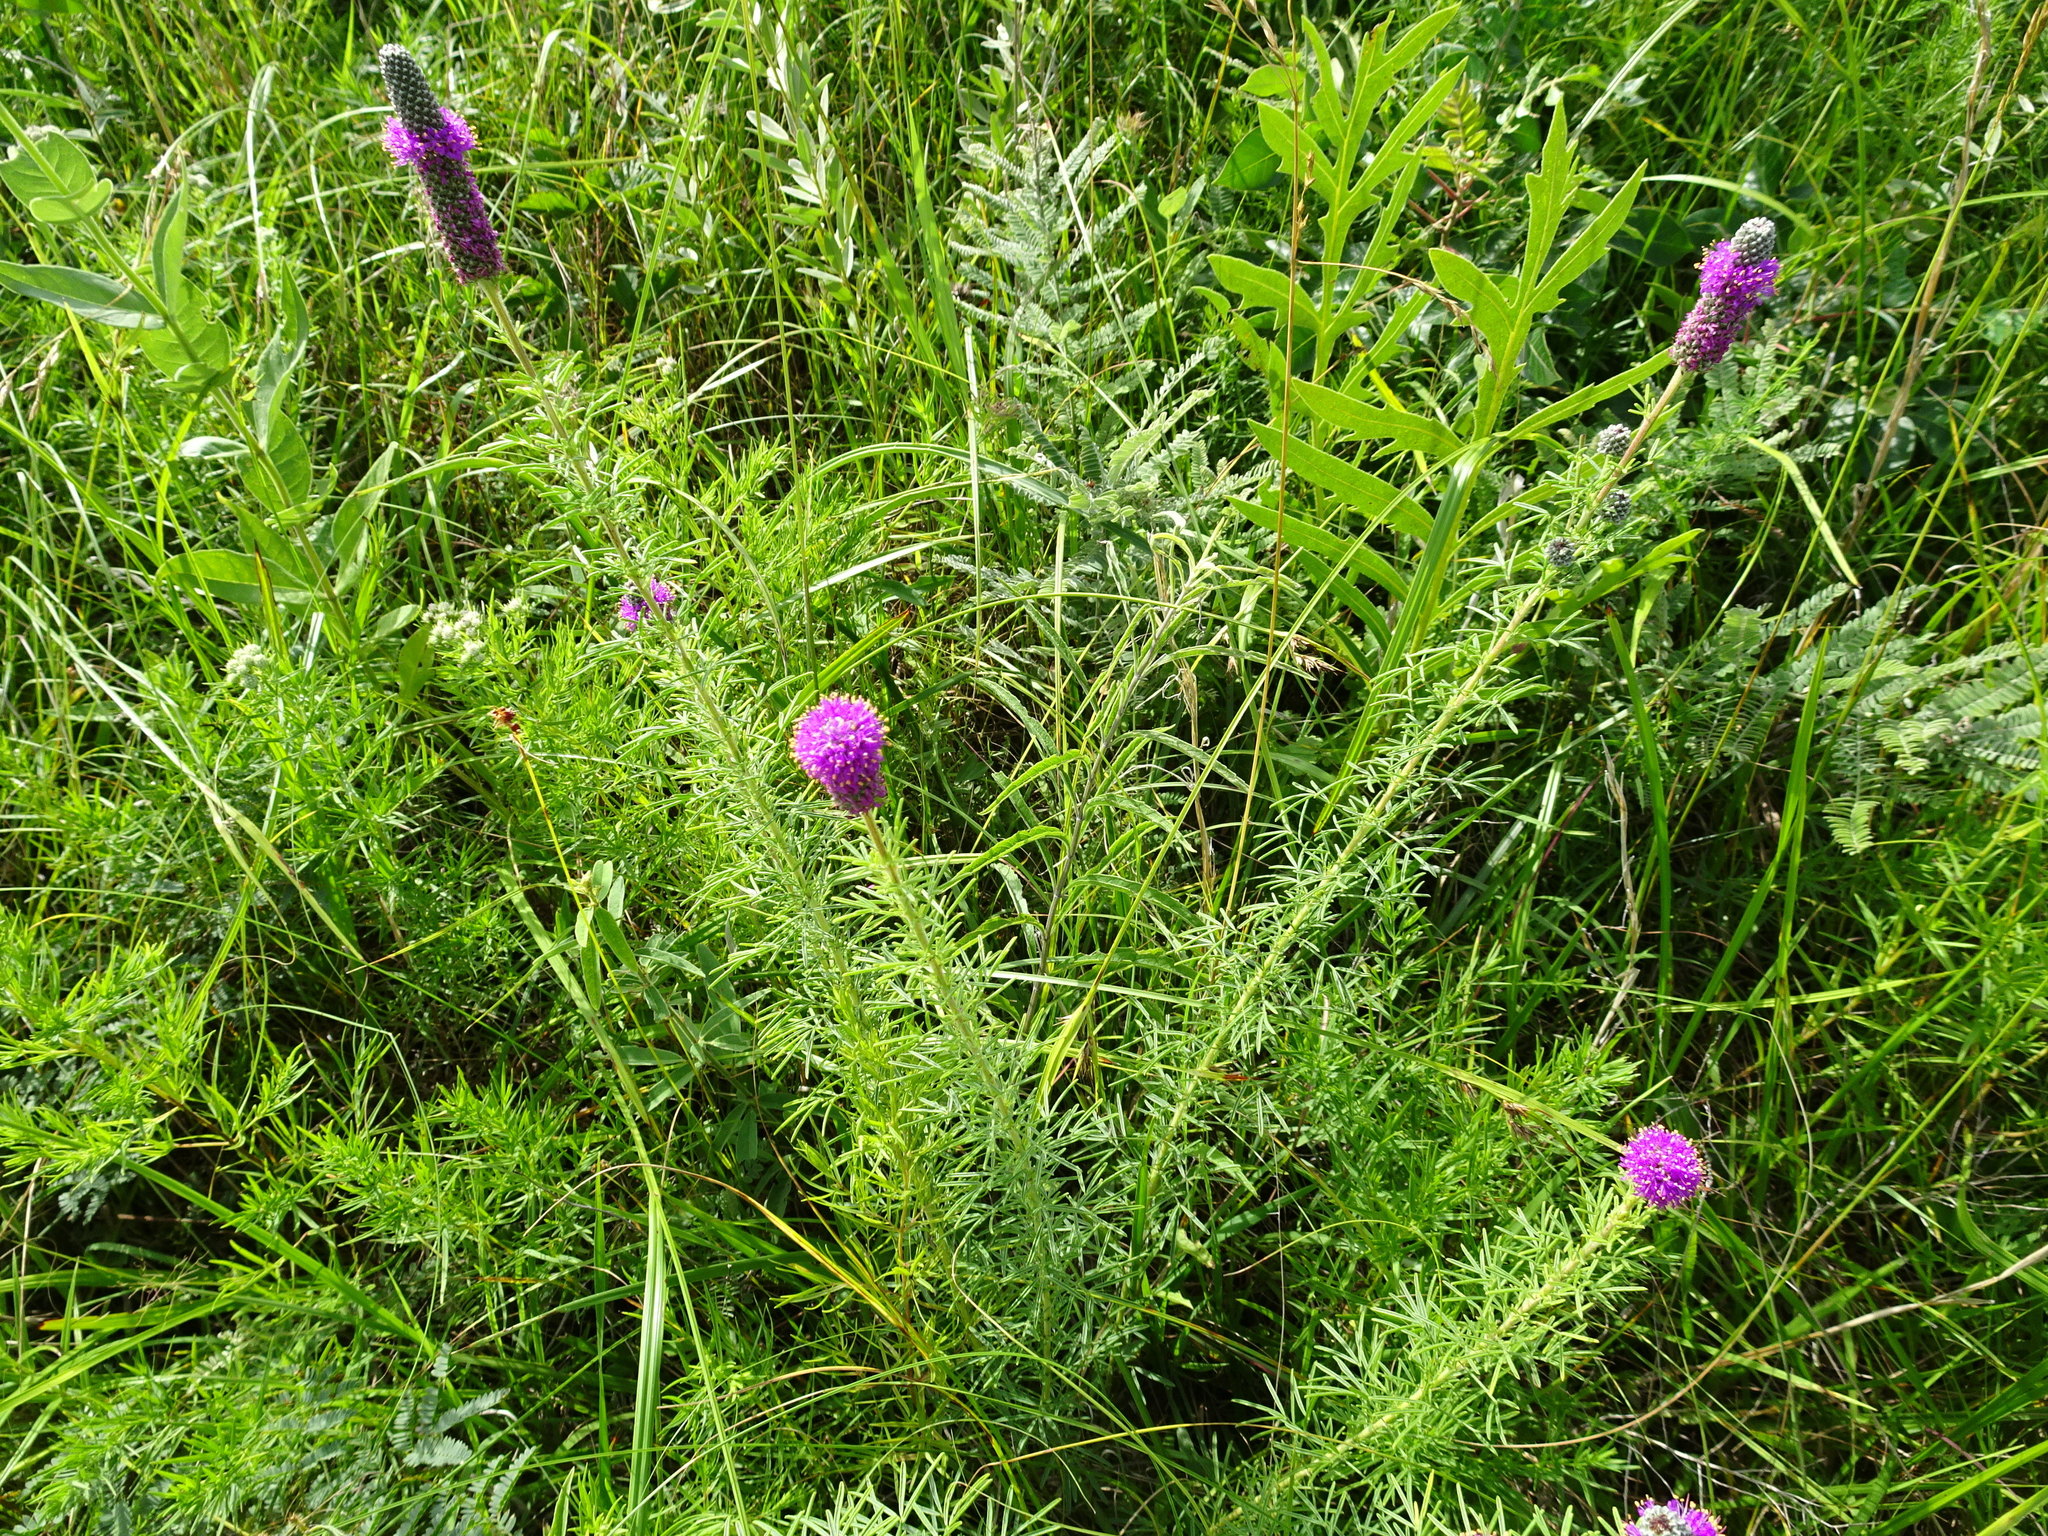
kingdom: Plantae
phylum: Tracheophyta
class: Magnoliopsida
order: Fabales
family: Fabaceae
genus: Dalea
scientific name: Dalea purpurea
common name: Purple prairie-clover
